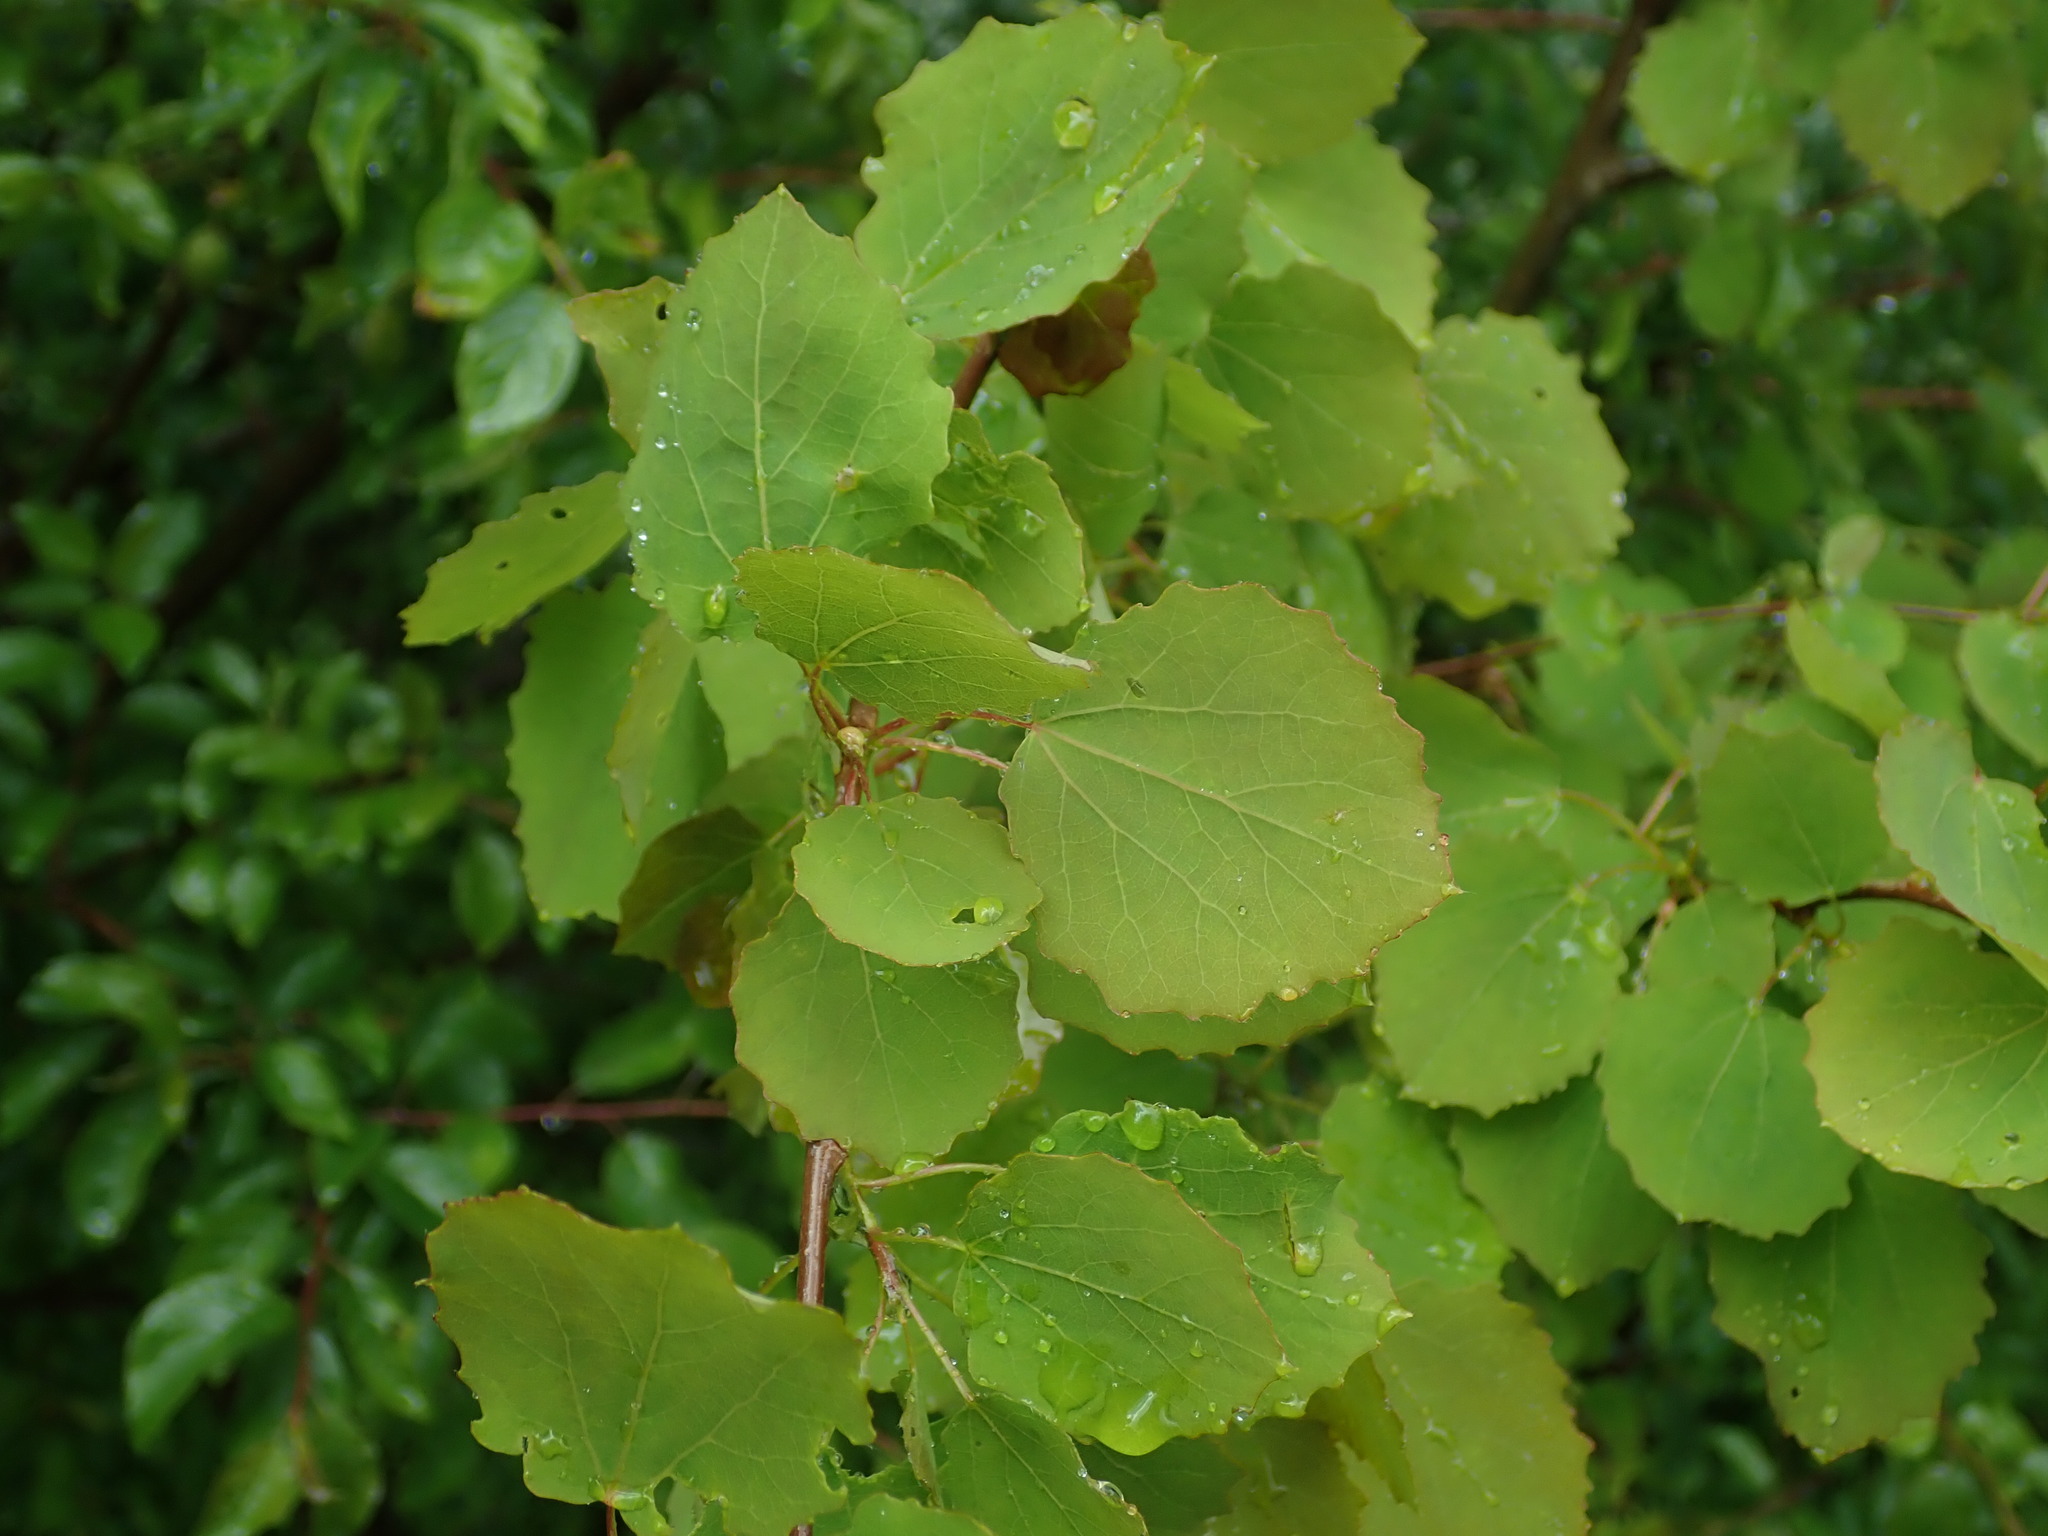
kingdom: Plantae
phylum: Tracheophyta
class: Magnoliopsida
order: Malpighiales
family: Salicaceae
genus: Populus
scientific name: Populus tremula
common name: European aspen
